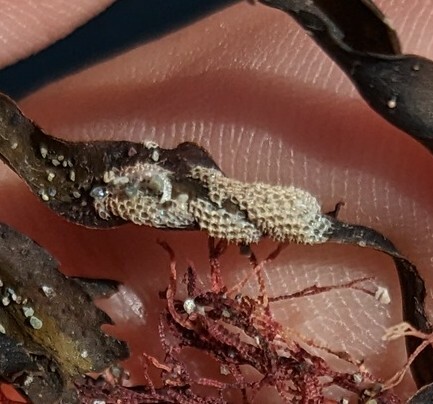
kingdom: Animalia
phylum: Bryozoa
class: Gymnolaemata
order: Cheilostomatida
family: Electridae
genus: Electra
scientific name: Electra pilosa
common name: Hairy sea-mat
